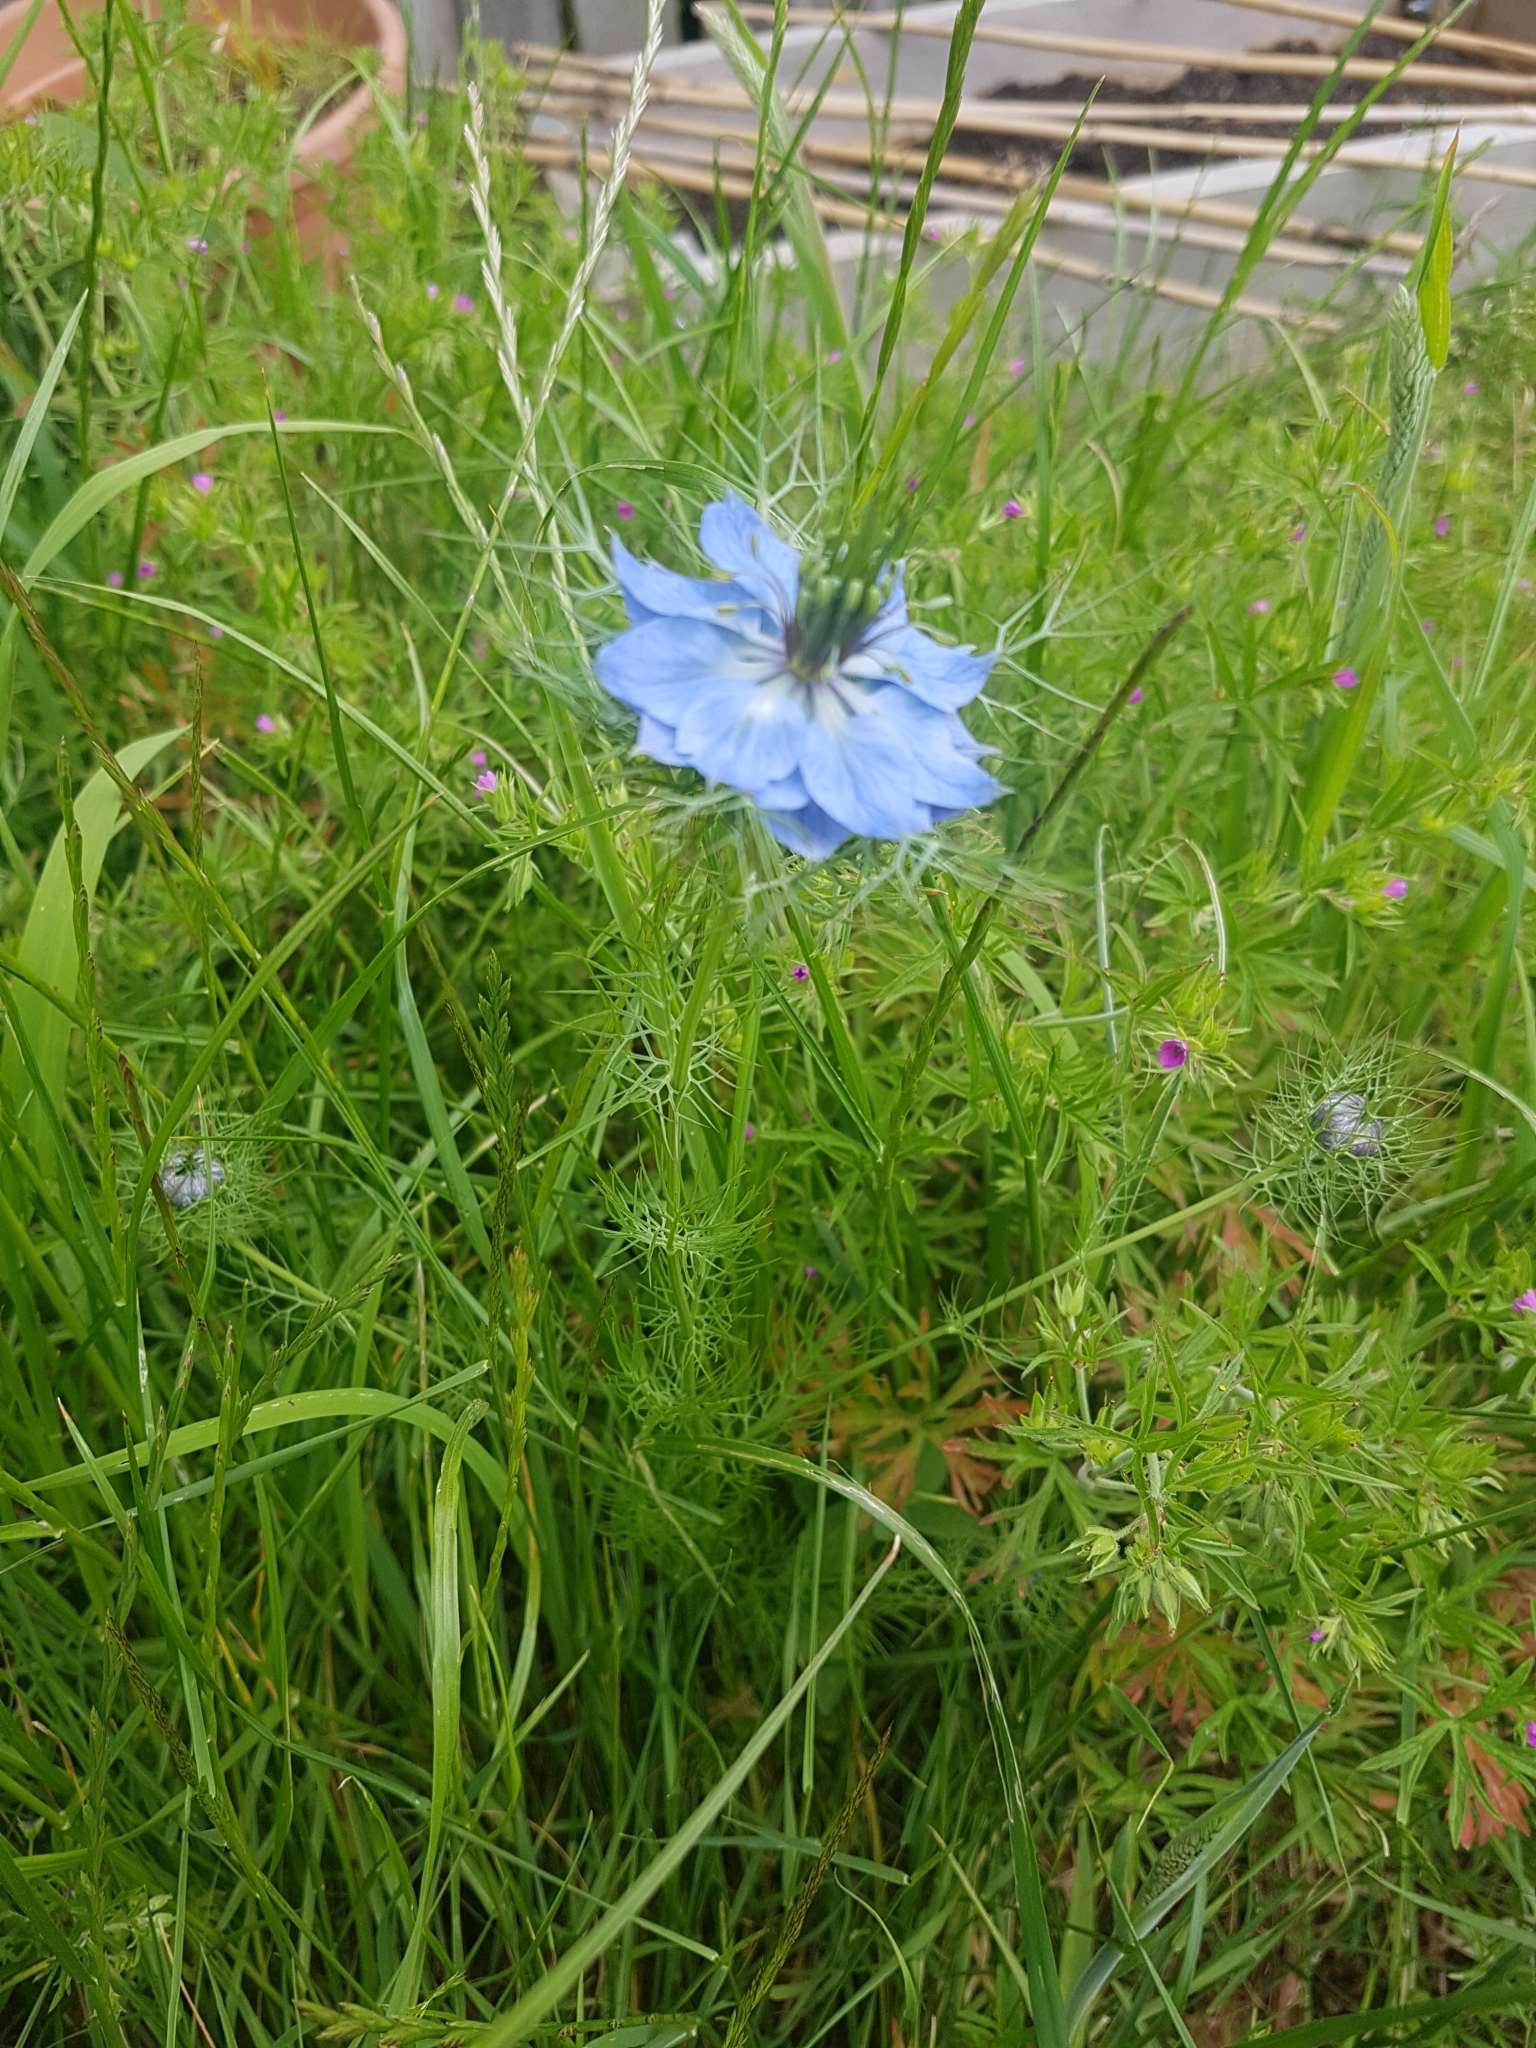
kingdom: Plantae
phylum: Tracheophyta
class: Magnoliopsida
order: Ranunculales
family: Ranunculaceae
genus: Nigella
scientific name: Nigella damascena
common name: Love-in-a-mist
